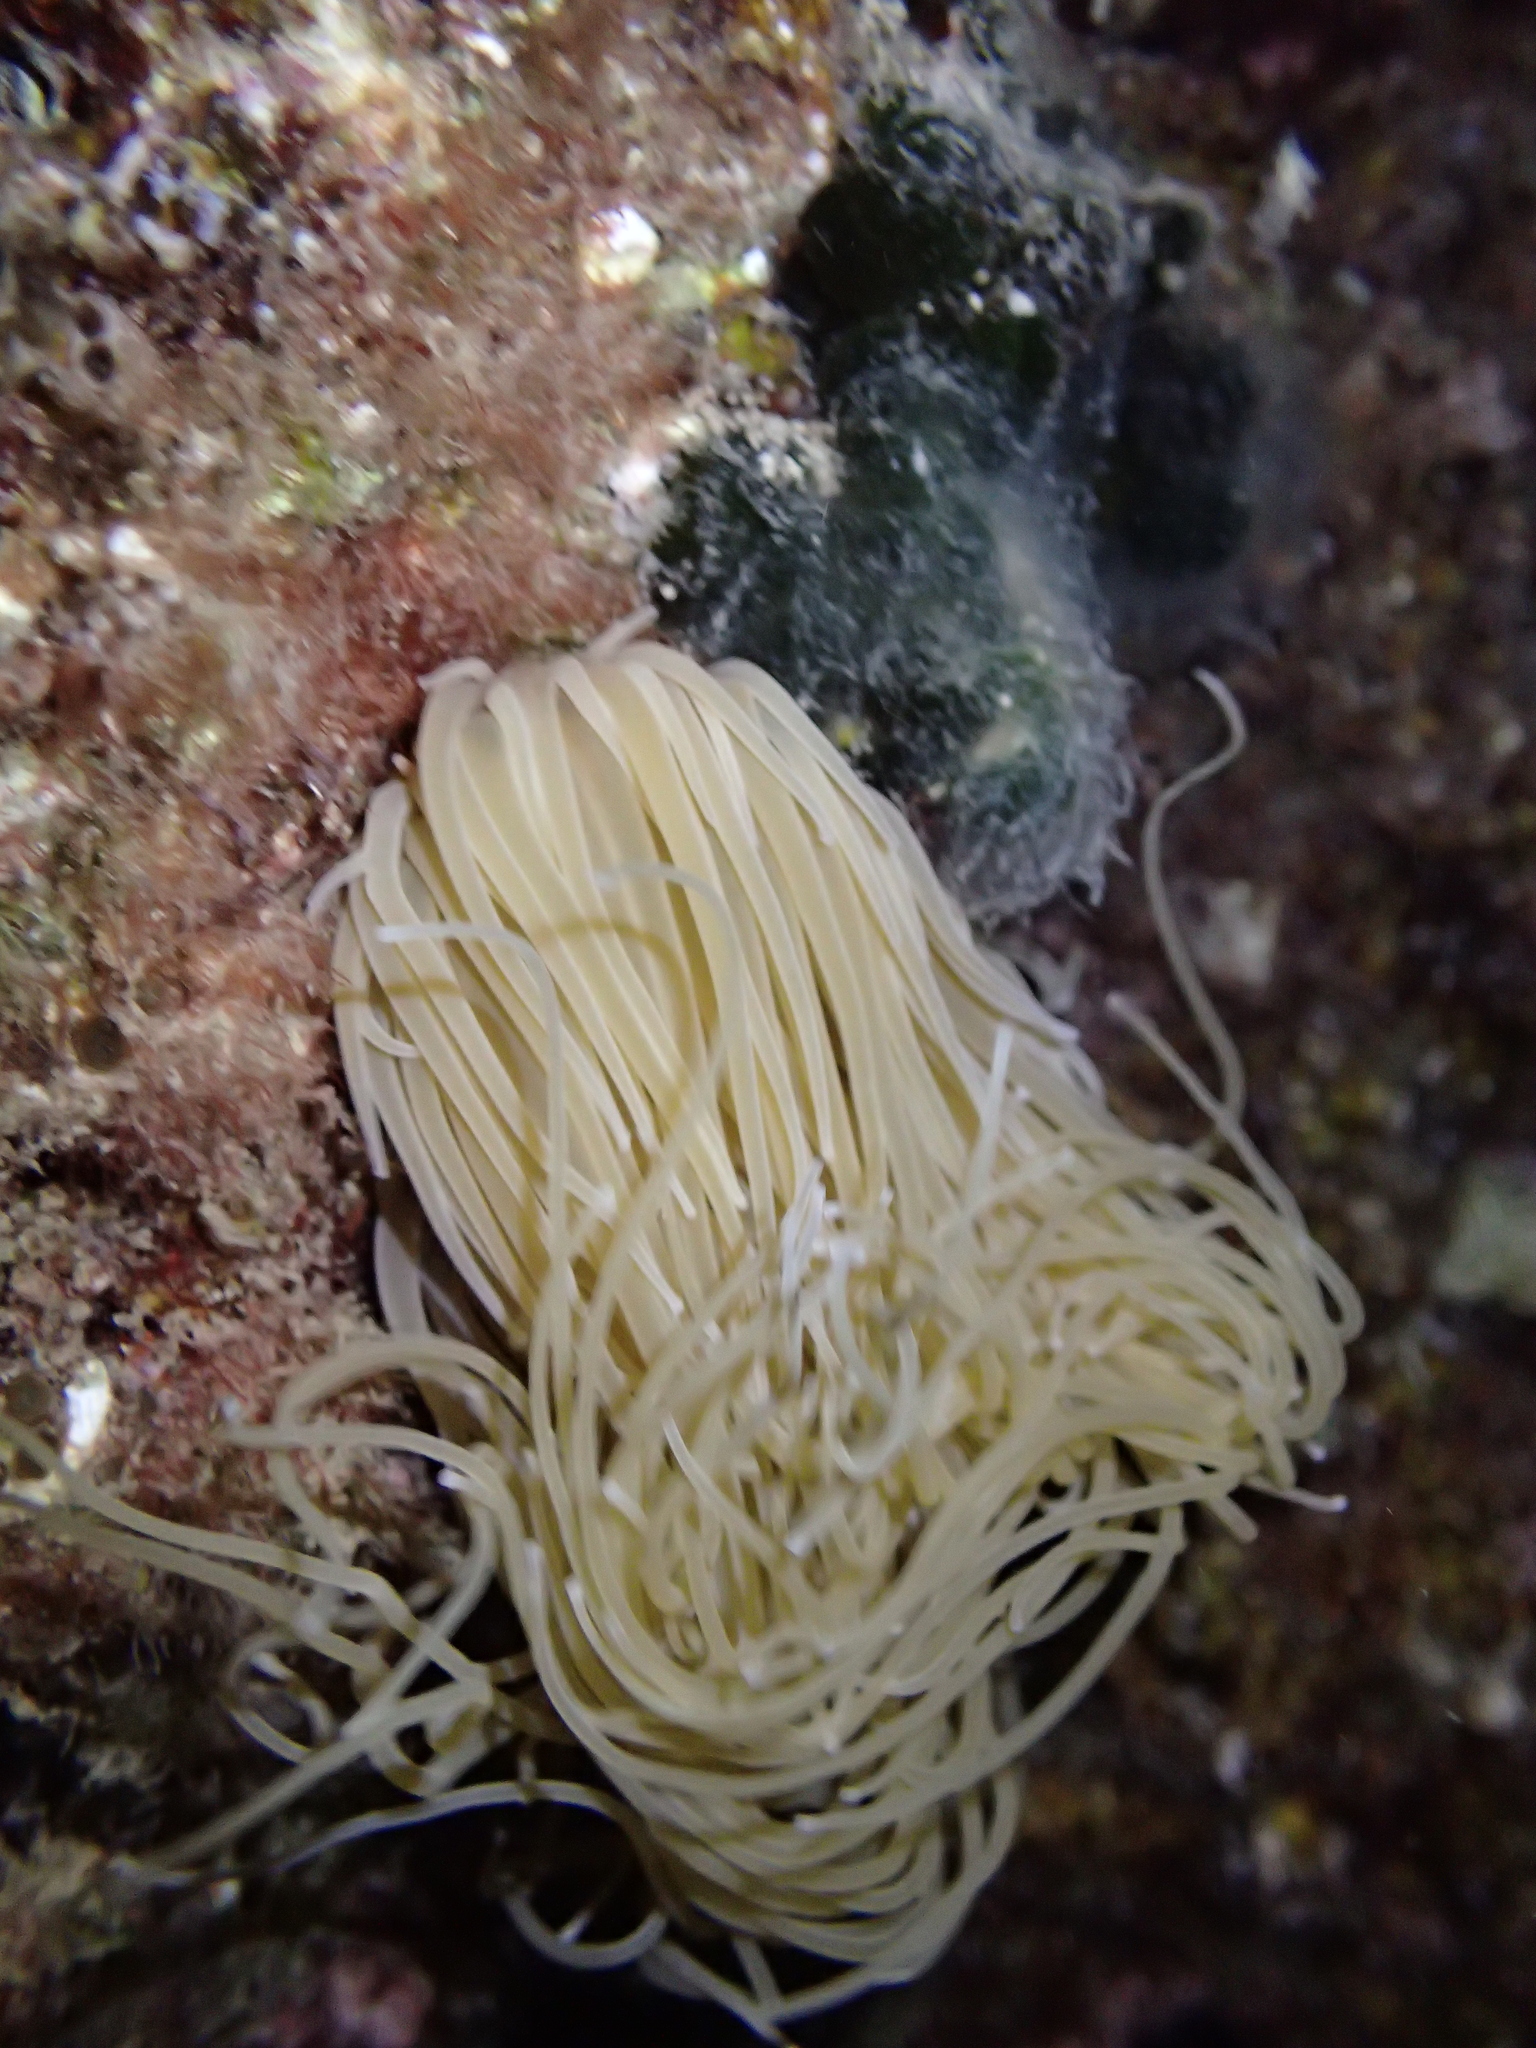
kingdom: Animalia
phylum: Cnidaria
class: Anthozoa
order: Actiniaria
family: Actiniidae
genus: Anemonia
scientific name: Anemonia viridis
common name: Snakelocks anemone
